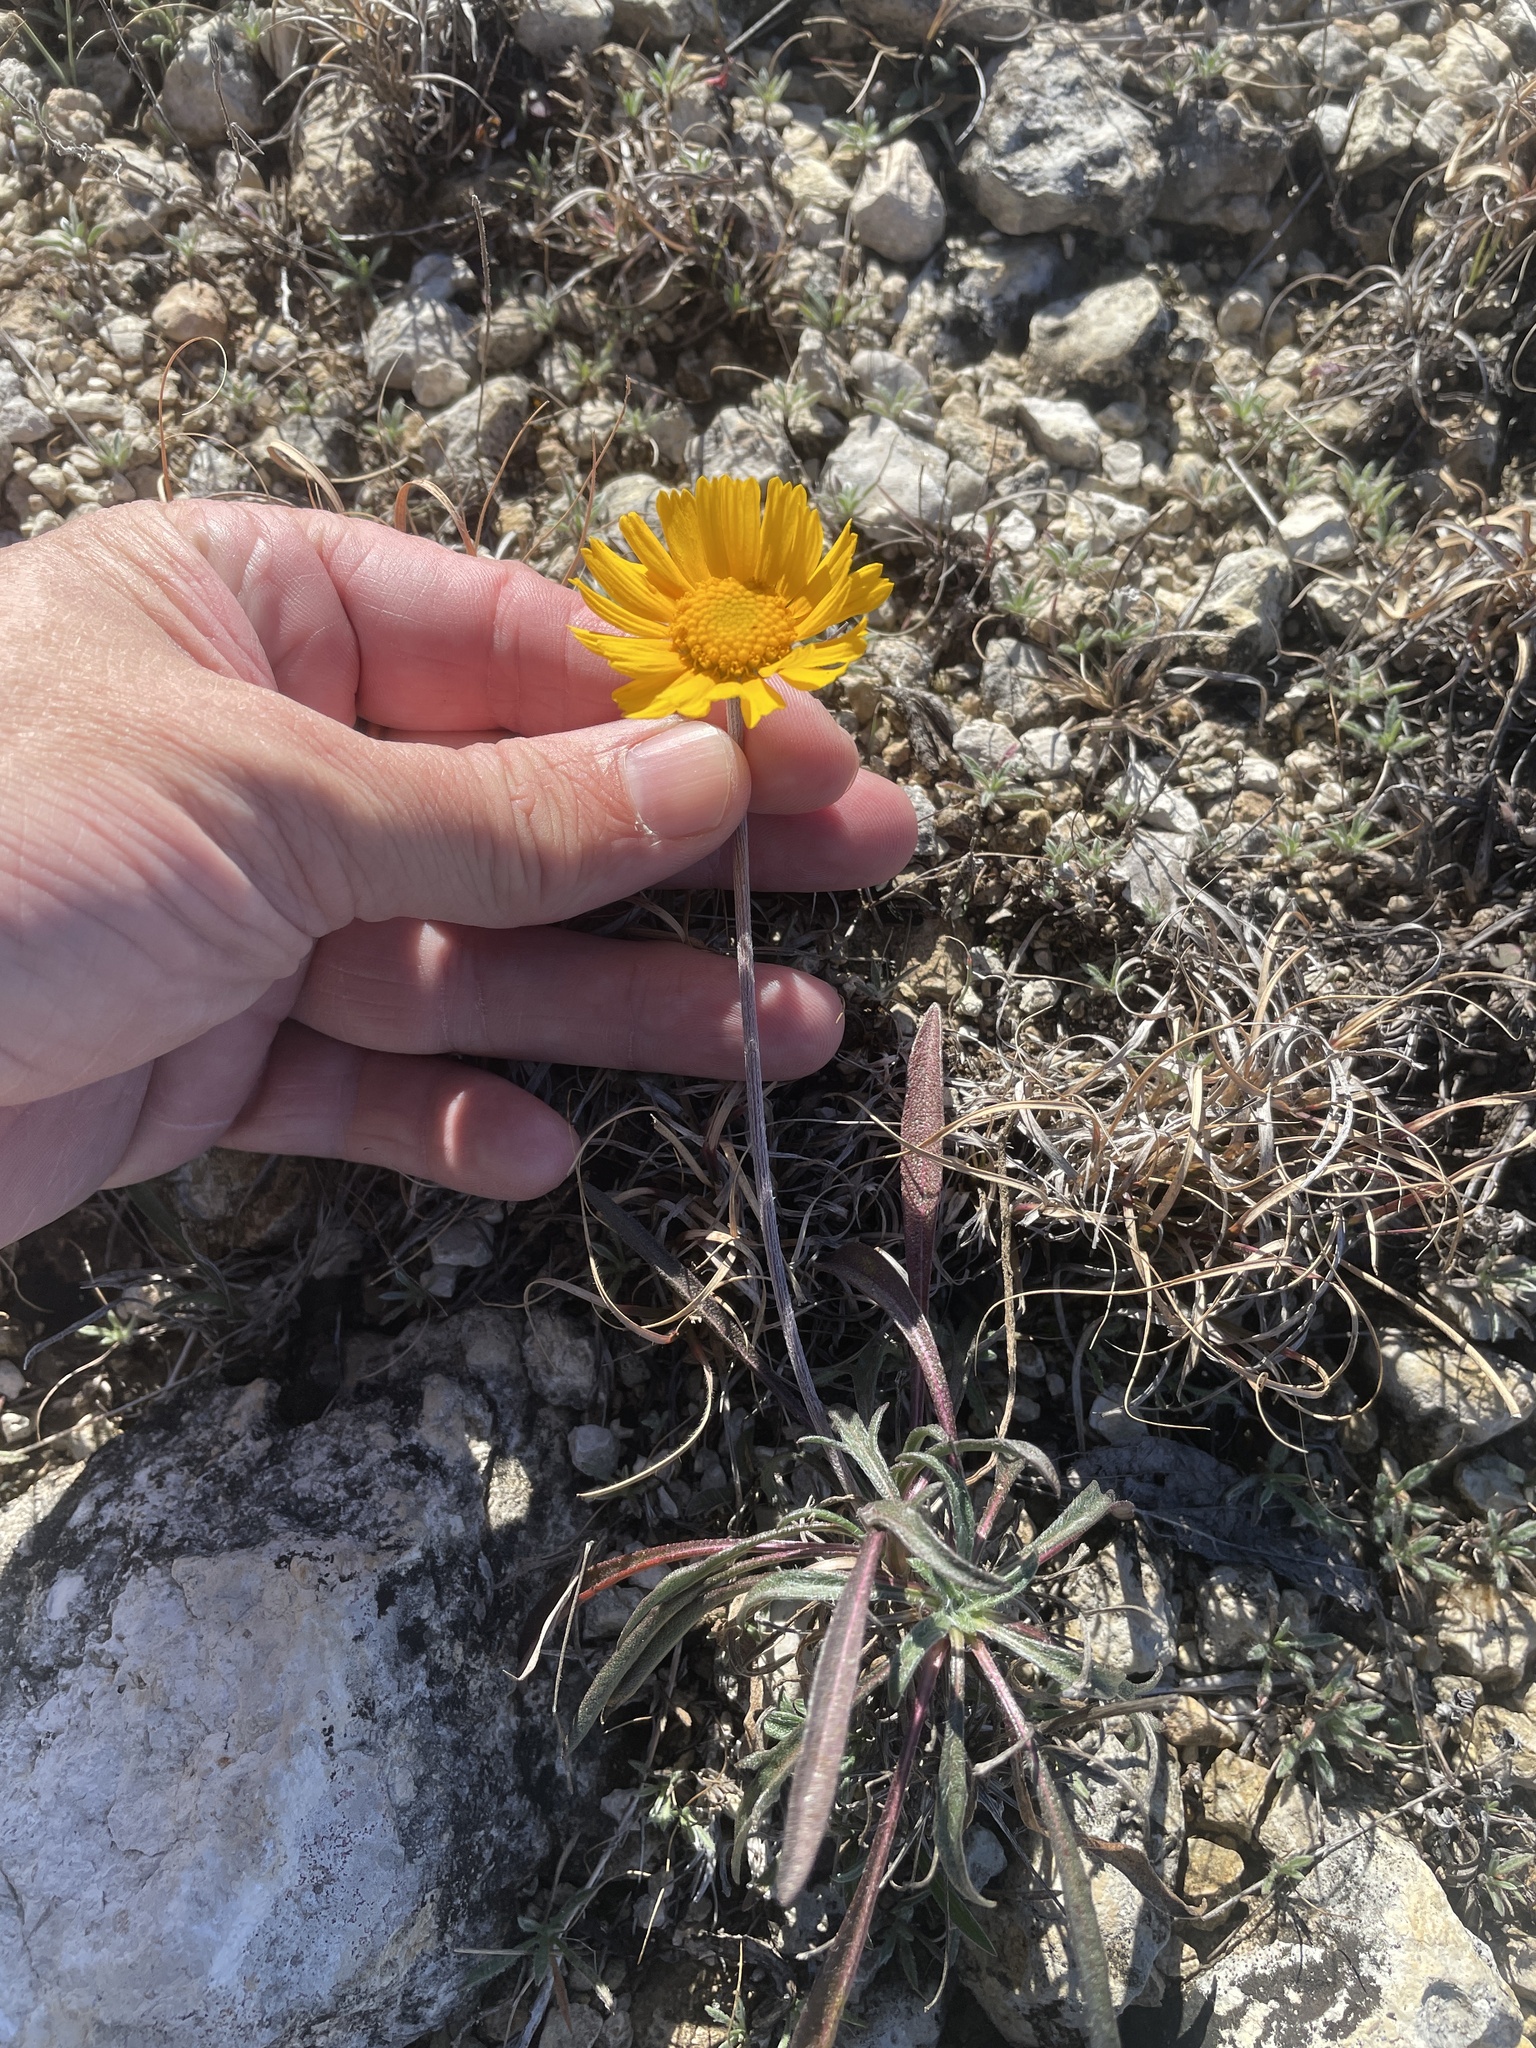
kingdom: Plantae
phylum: Tracheophyta
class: Magnoliopsida
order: Asterales
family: Asteraceae
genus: Tetraneuris
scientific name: Tetraneuris scaposa
